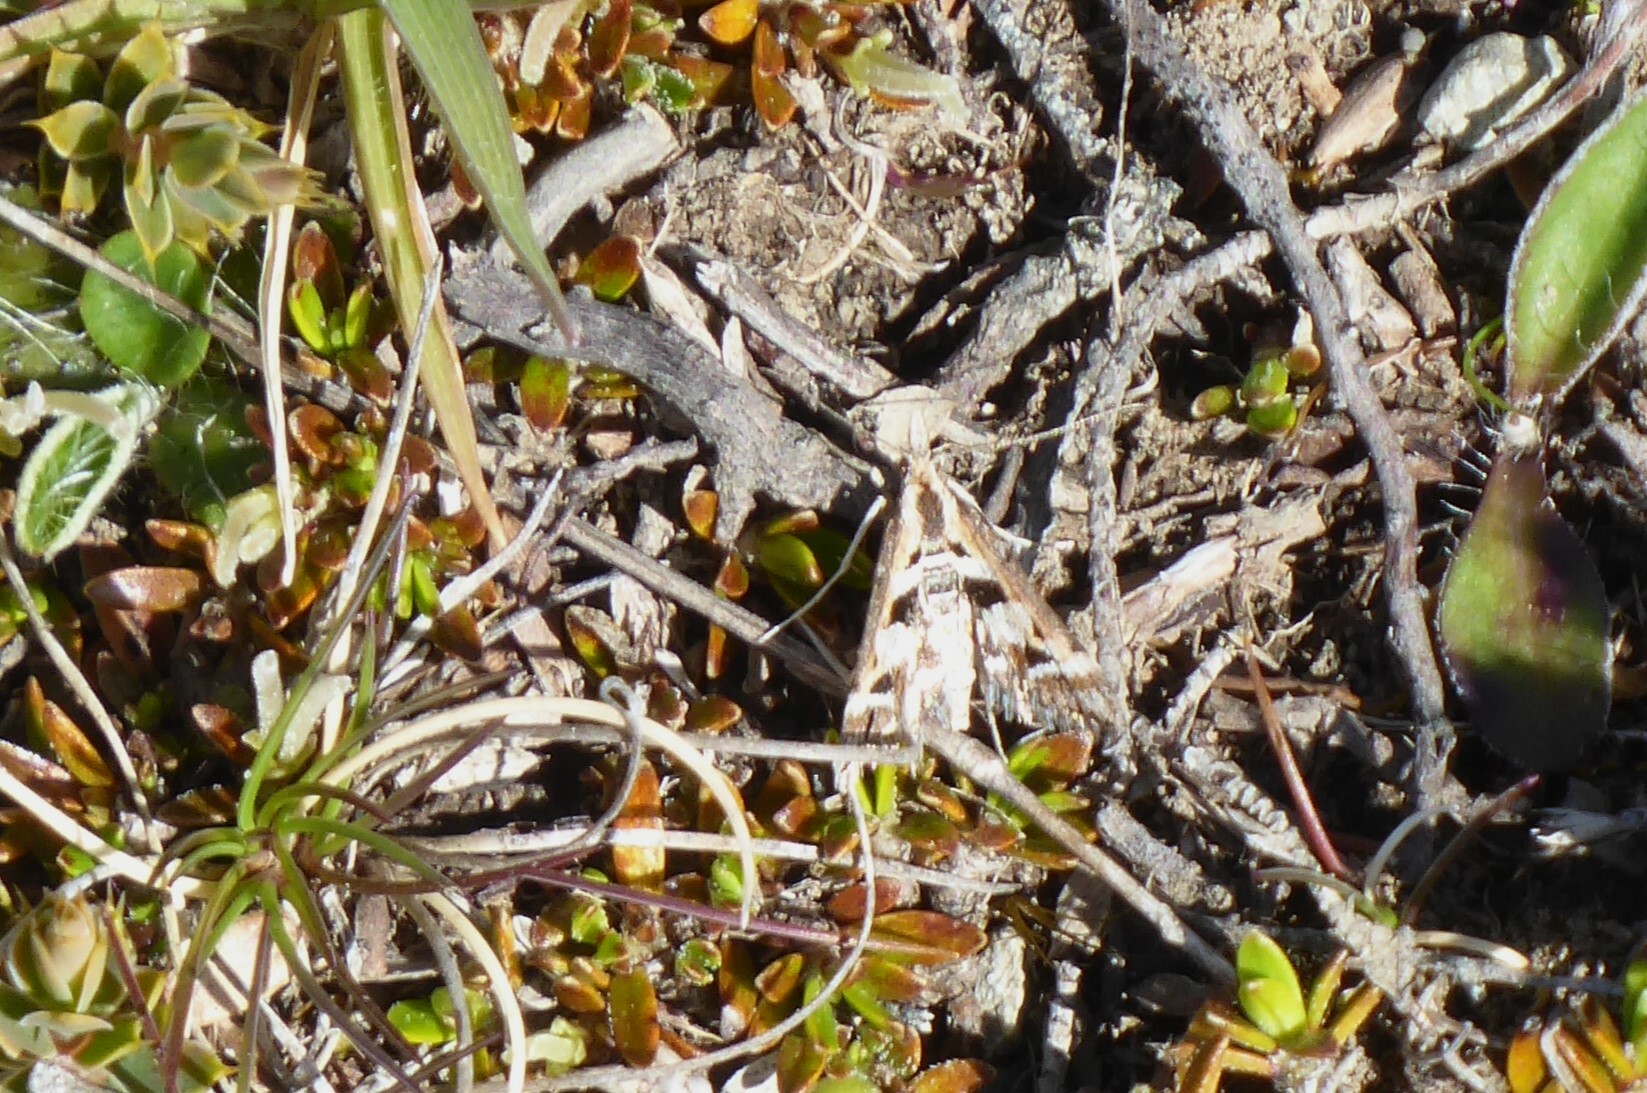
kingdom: Animalia
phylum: Arthropoda
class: Insecta
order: Lepidoptera
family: Crambidae
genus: Diasemia
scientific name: Diasemia grammalis
